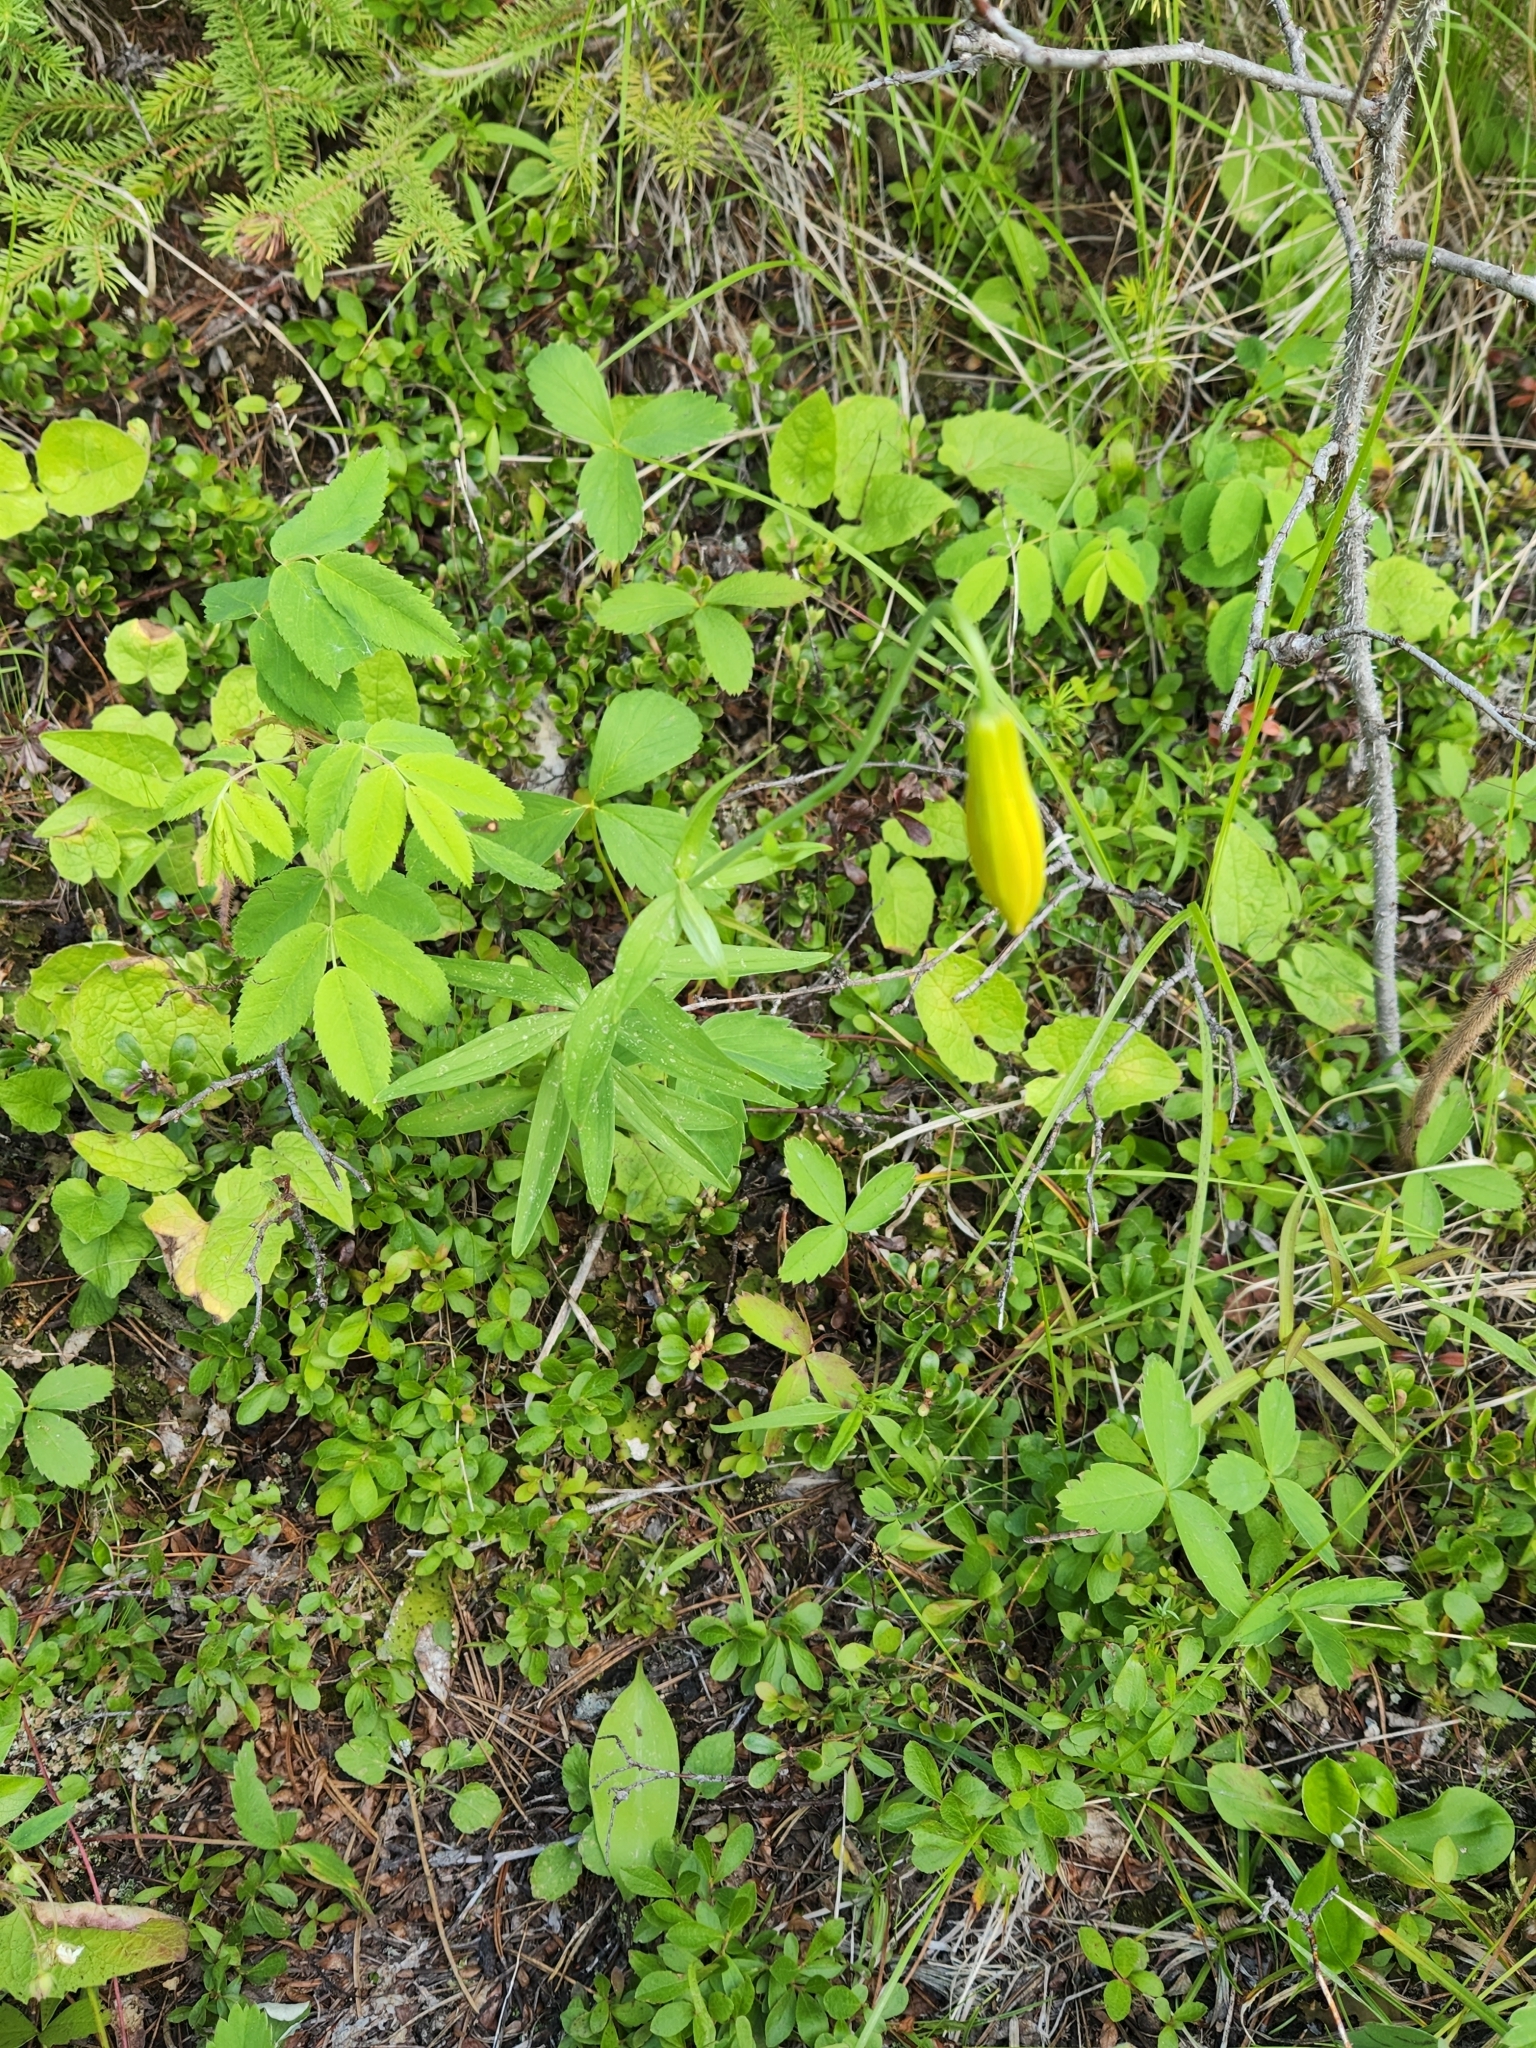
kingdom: Plantae
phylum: Tracheophyta
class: Liliopsida
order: Liliales
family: Liliaceae
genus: Lilium
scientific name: Lilium columbianum
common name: Columbia lily
